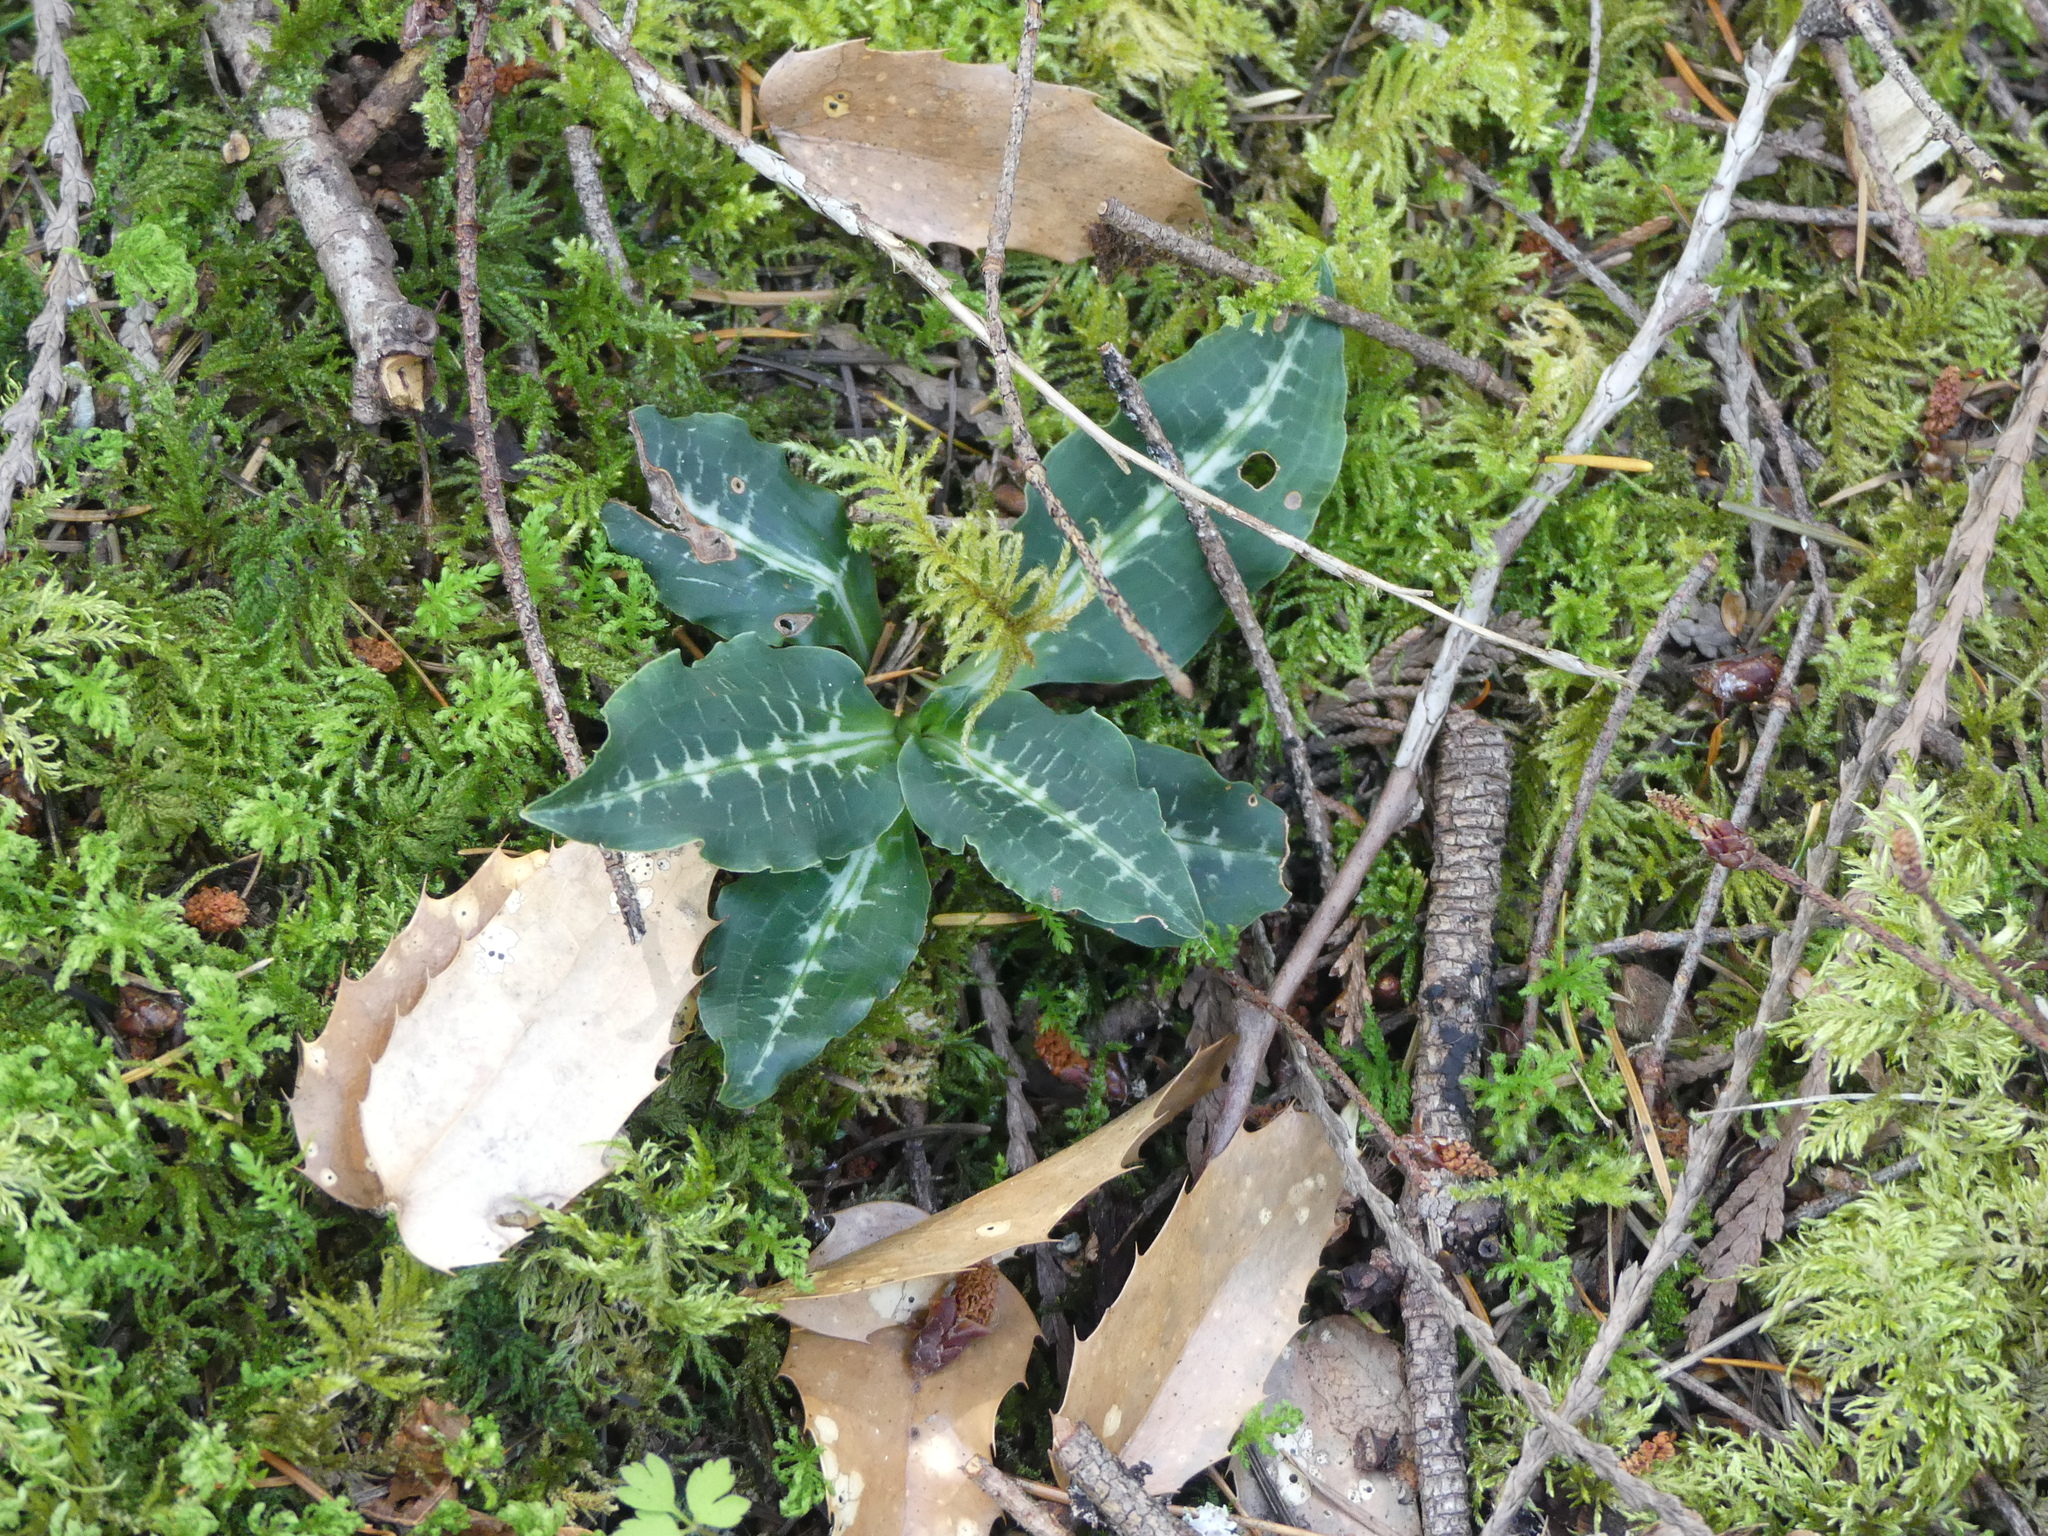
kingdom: Plantae
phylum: Tracheophyta
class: Liliopsida
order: Asparagales
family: Orchidaceae
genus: Goodyera
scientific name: Goodyera oblongifolia
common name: Giant rattlesnake-plantain
